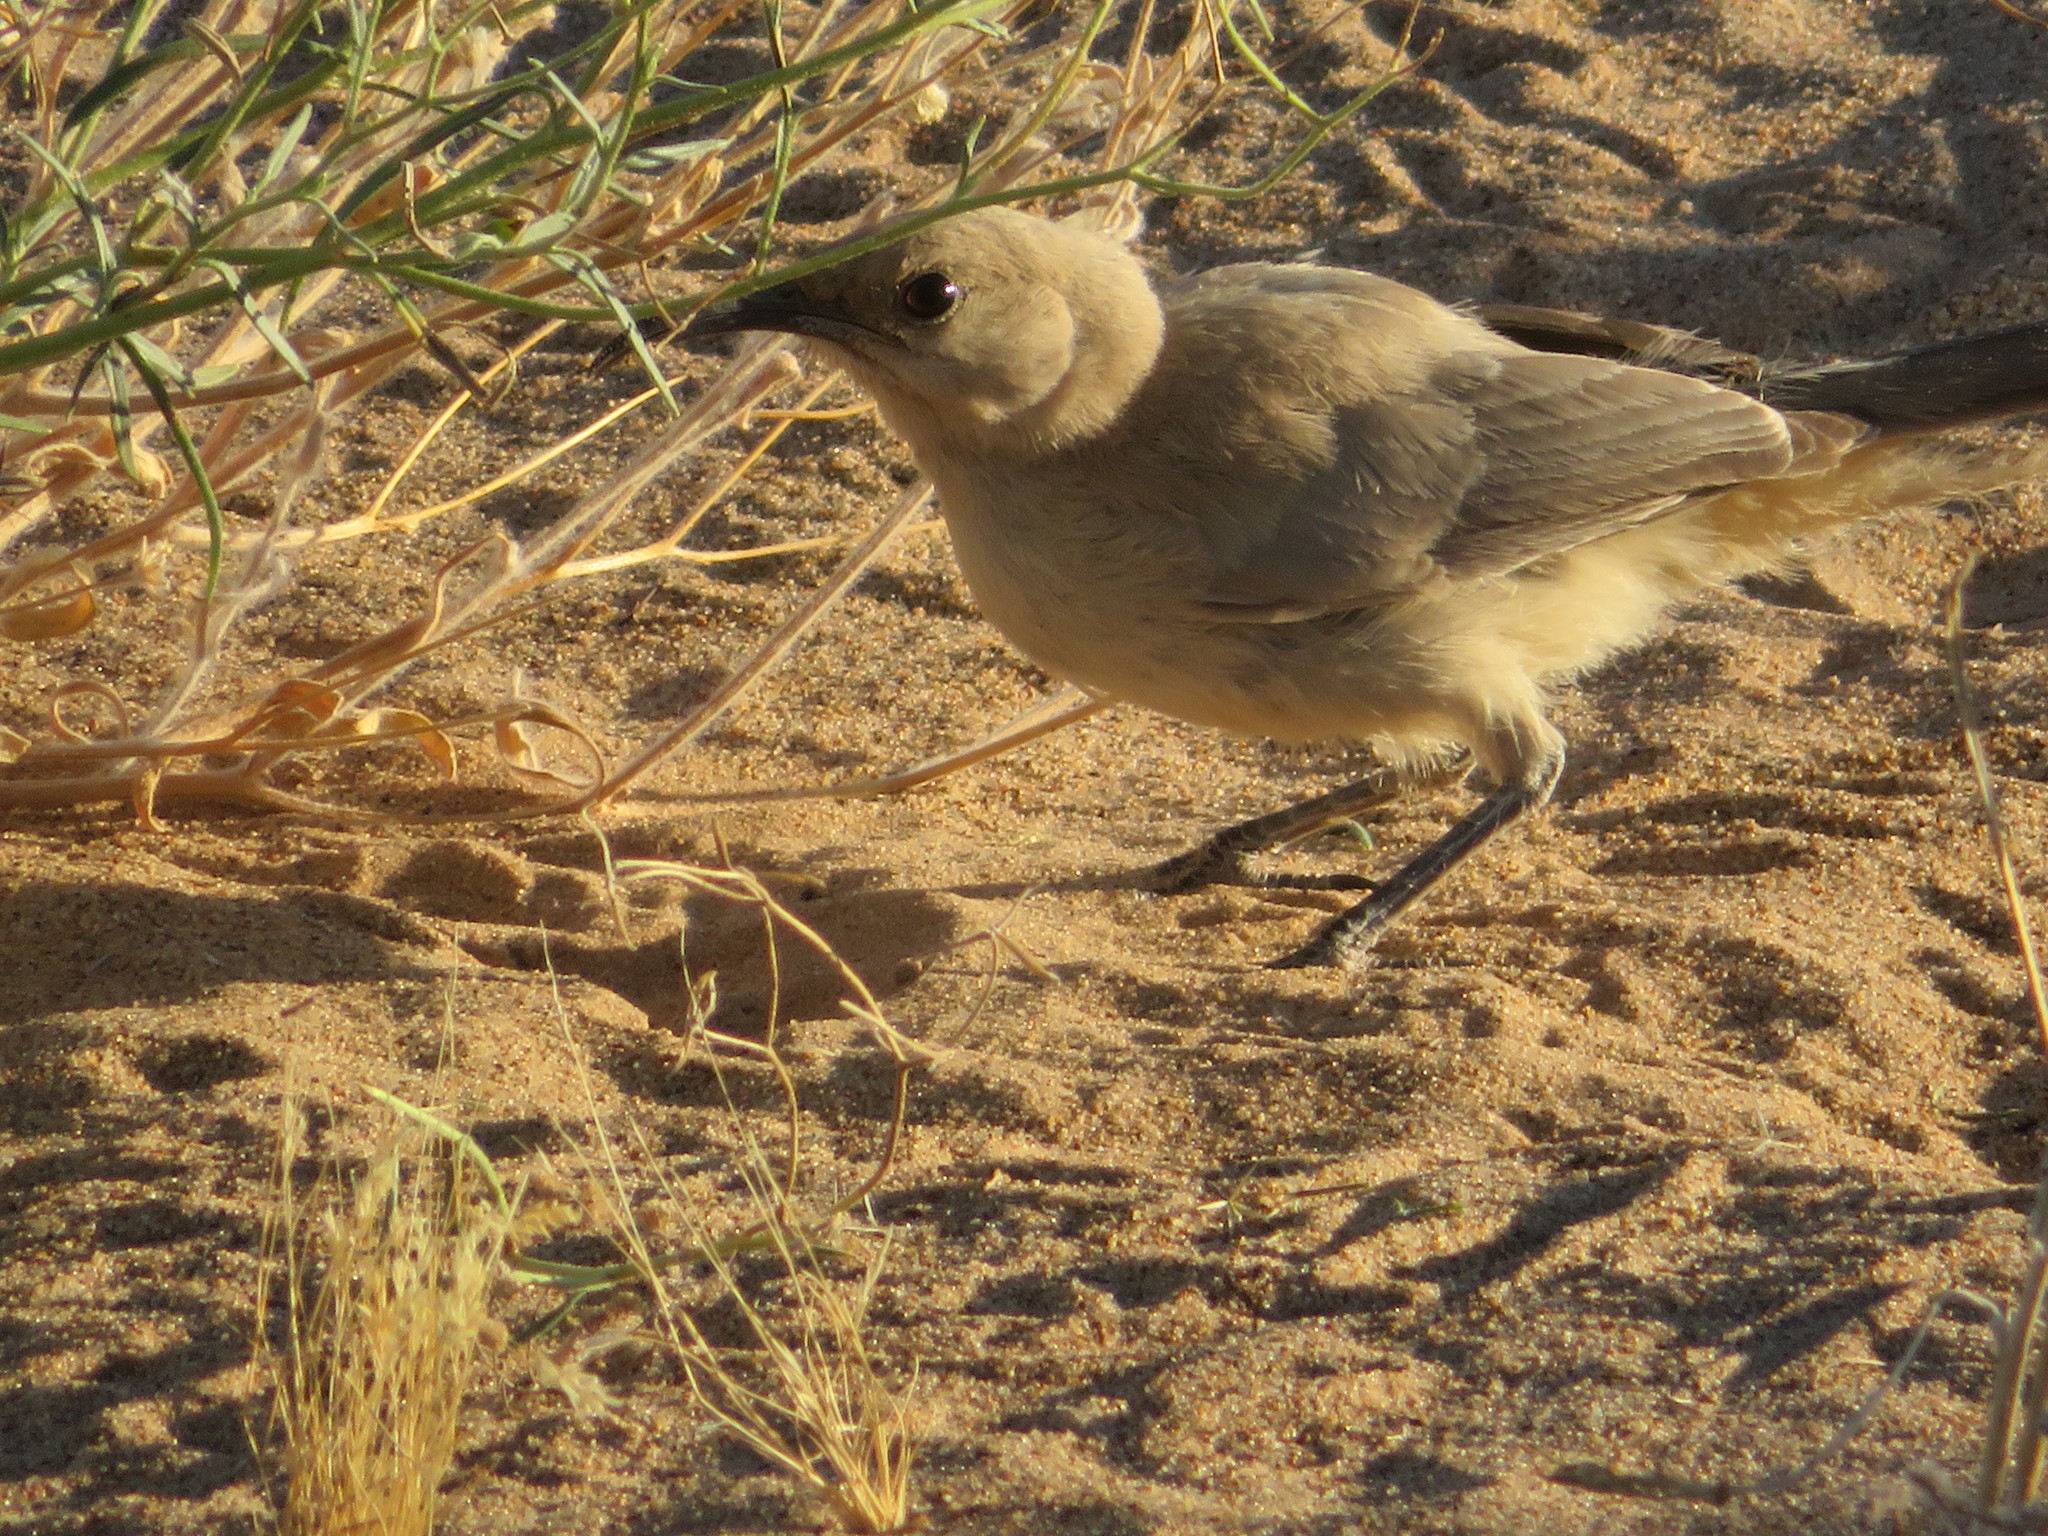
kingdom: Animalia
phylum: Chordata
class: Aves
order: Passeriformes
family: Mimidae
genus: Toxostoma
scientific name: Toxostoma lecontei
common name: Le conte's thrasher
